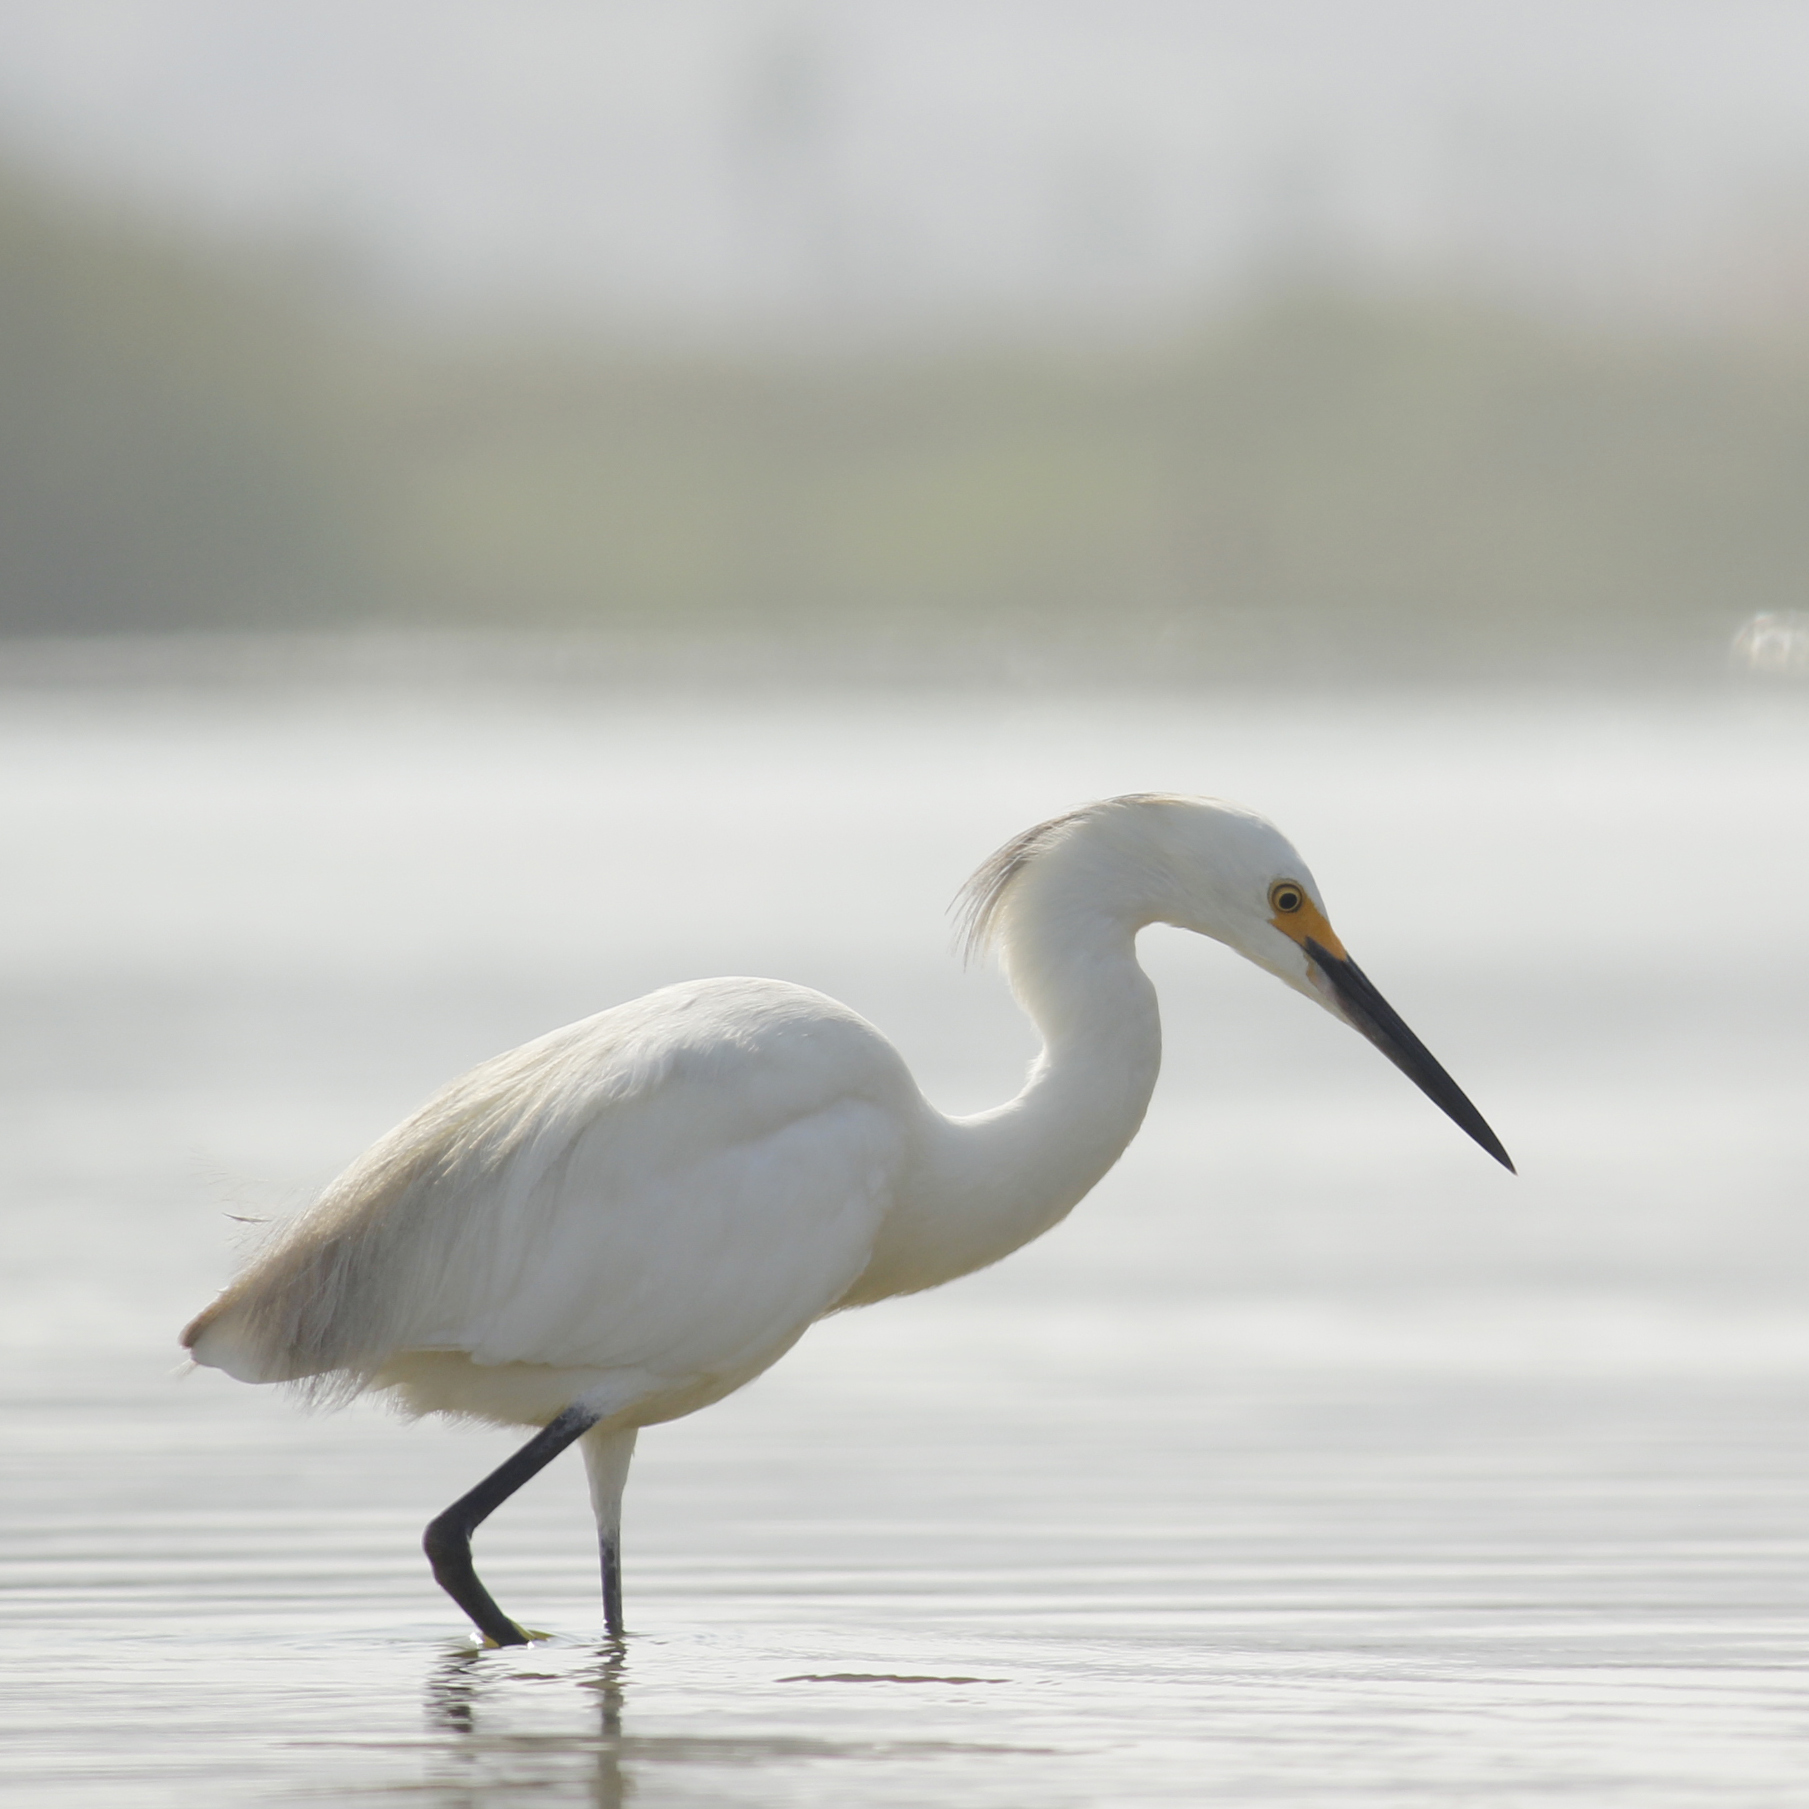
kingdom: Animalia
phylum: Chordata
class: Aves
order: Pelecaniformes
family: Ardeidae
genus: Egretta
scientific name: Egretta thula
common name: Snowy egret
